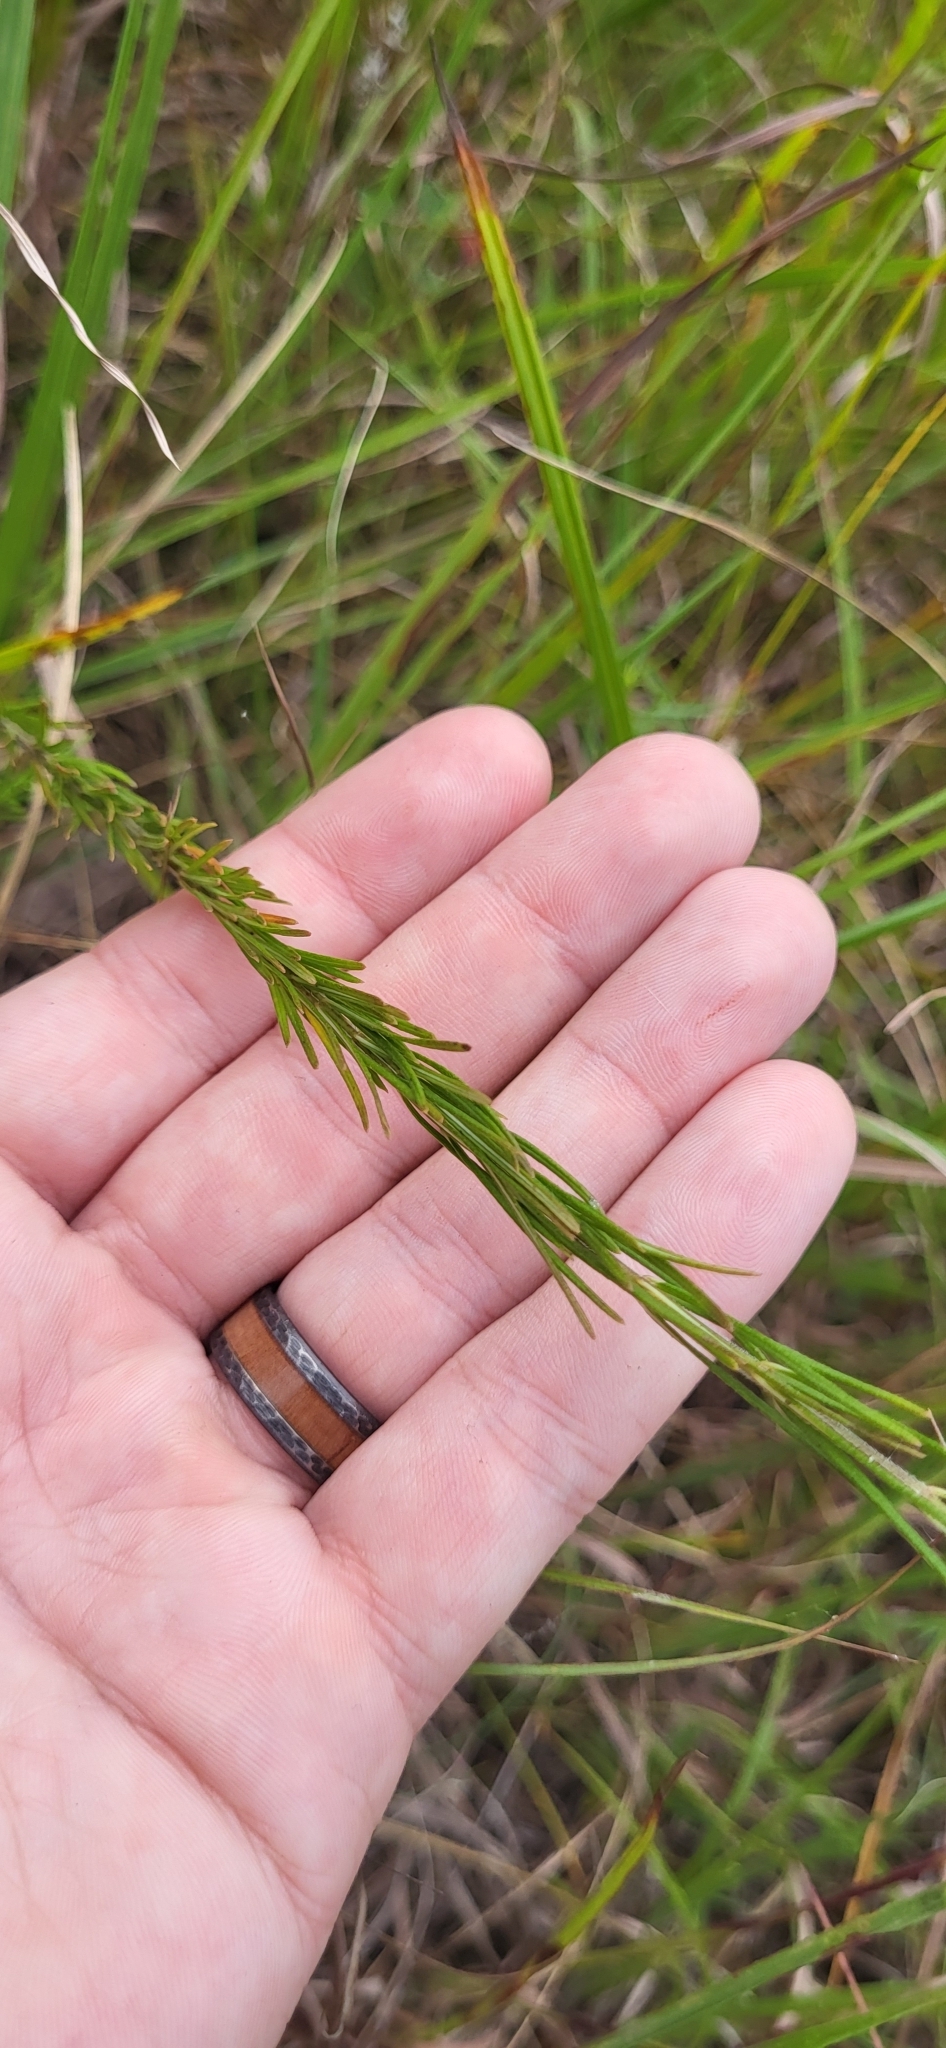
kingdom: Plantae
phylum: Tracheophyta
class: Magnoliopsida
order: Gentianales
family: Apocynaceae
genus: Asclepias
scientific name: Asclepias verticillata
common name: Eastern whorled milkweed
